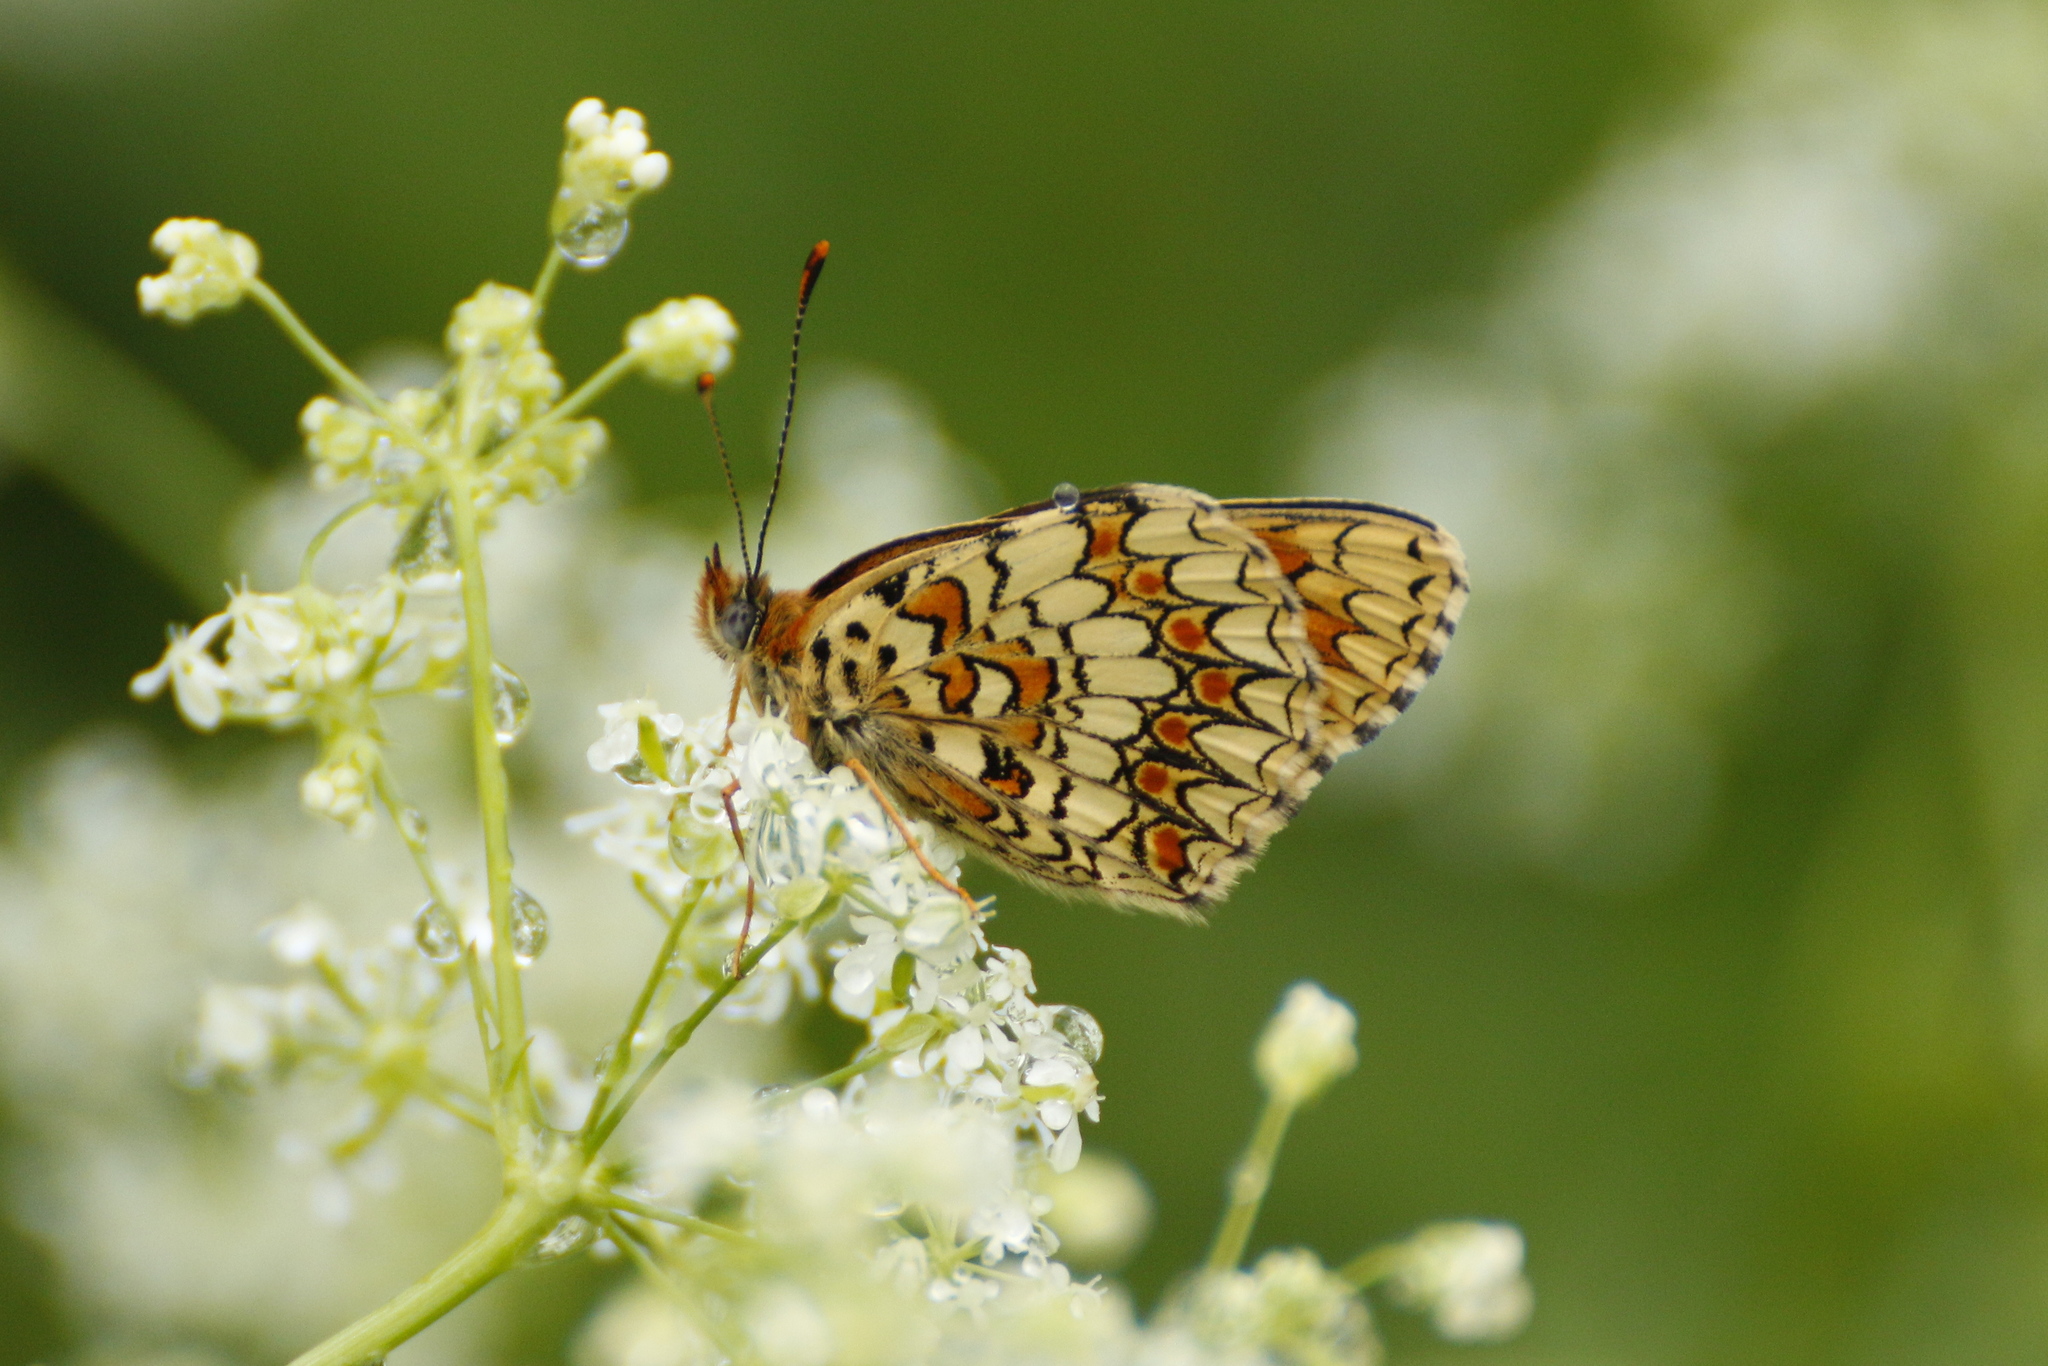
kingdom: Animalia
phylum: Arthropoda
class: Insecta
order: Lepidoptera
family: Nymphalidae
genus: Melitaea
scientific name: Melitaea phoebe
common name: Knapweed fritillary
